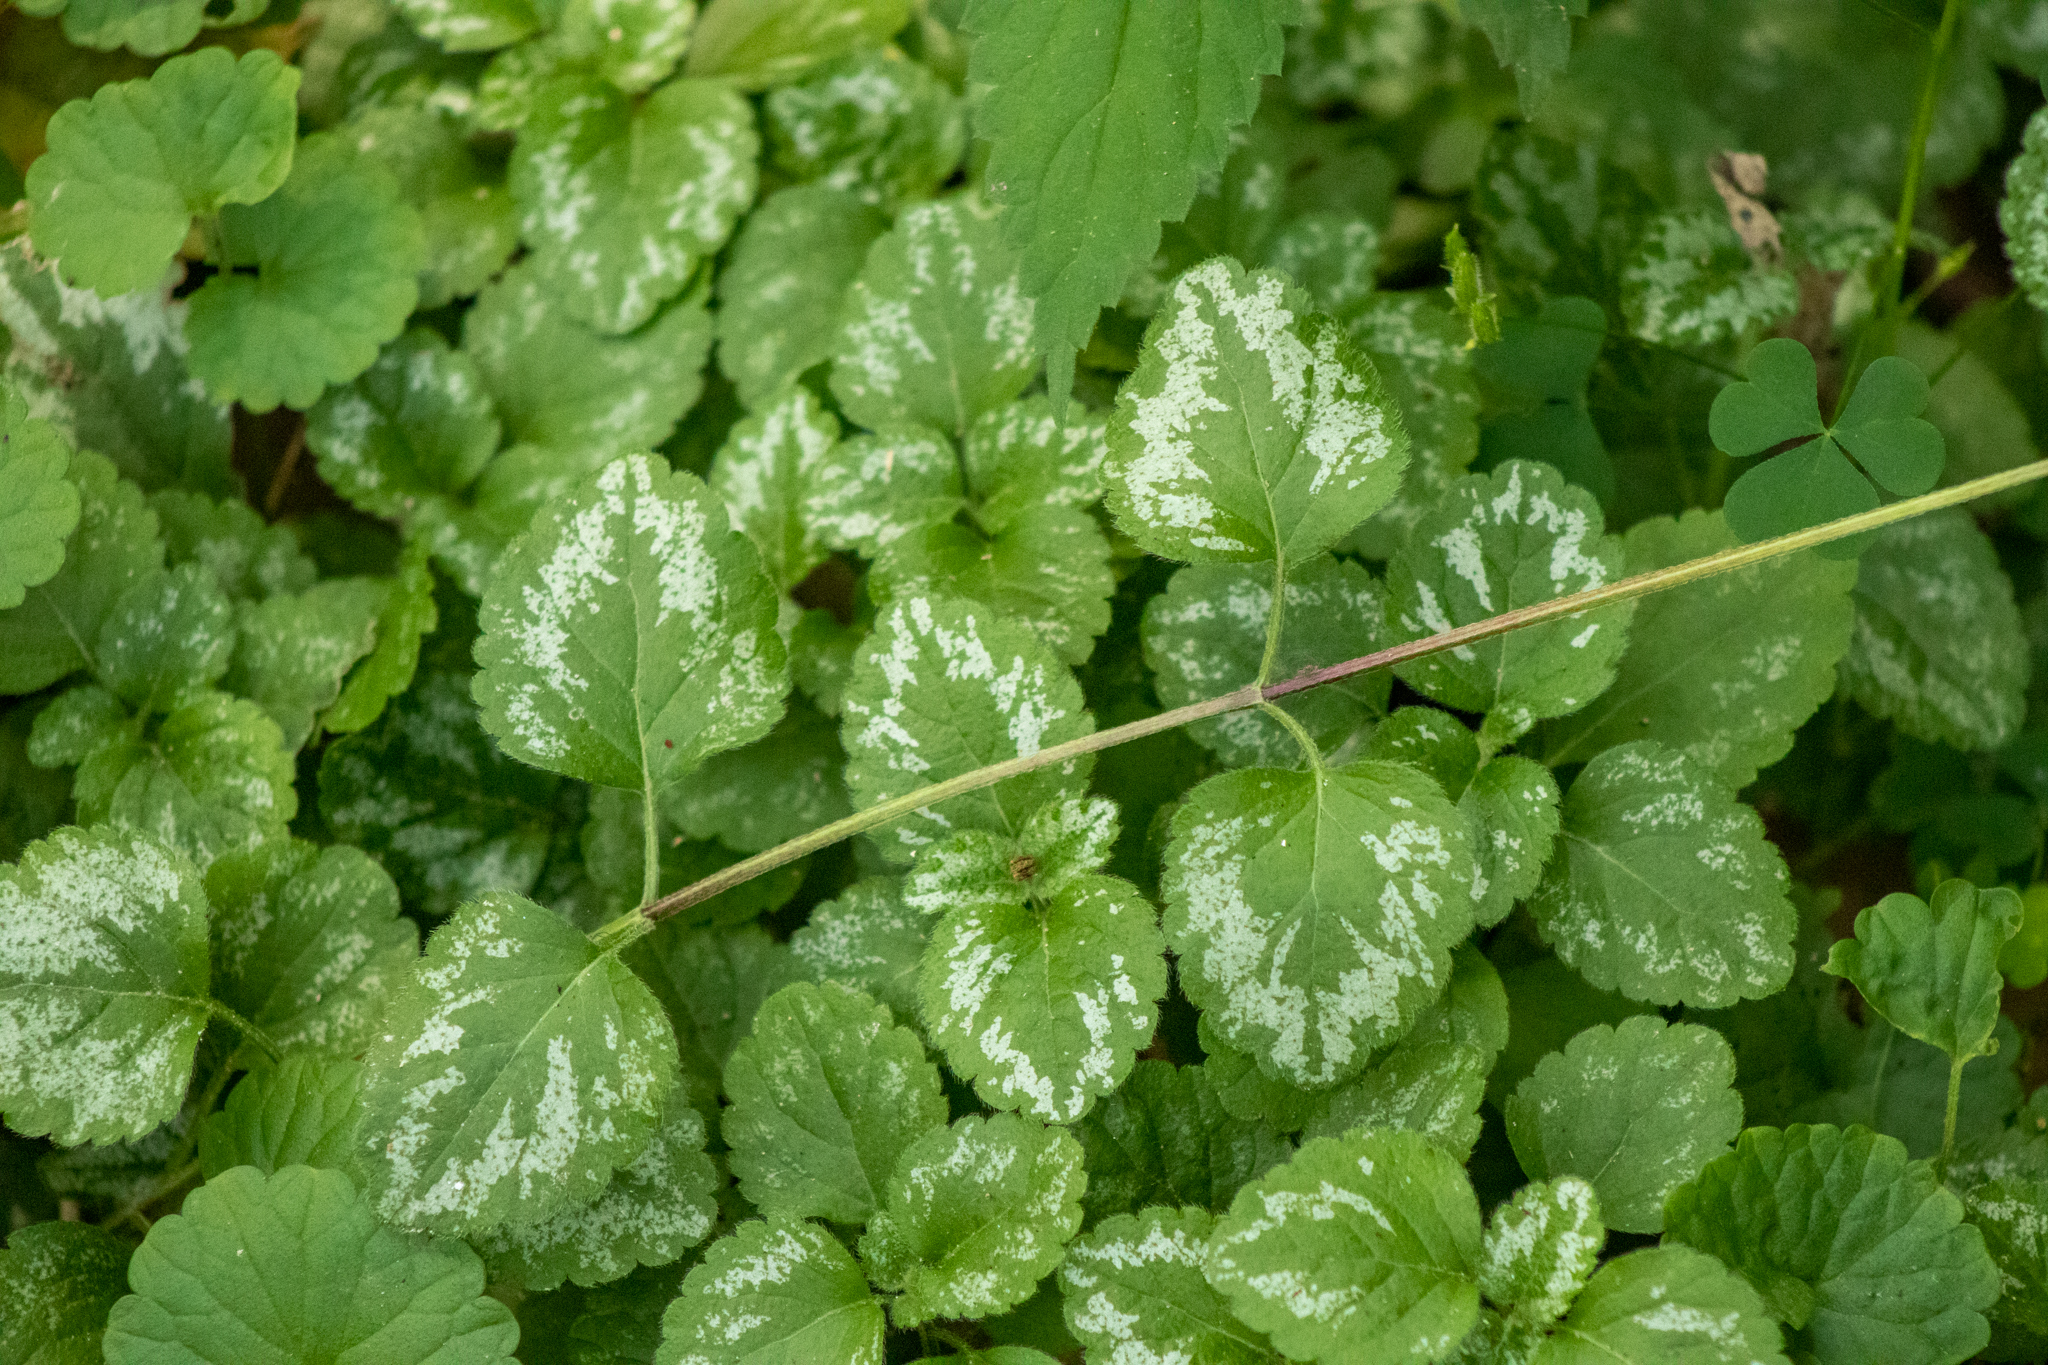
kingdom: Plantae
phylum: Tracheophyta
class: Magnoliopsida
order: Lamiales
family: Lamiaceae
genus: Lamium
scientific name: Lamium galeobdolon
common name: Yellow archangel
